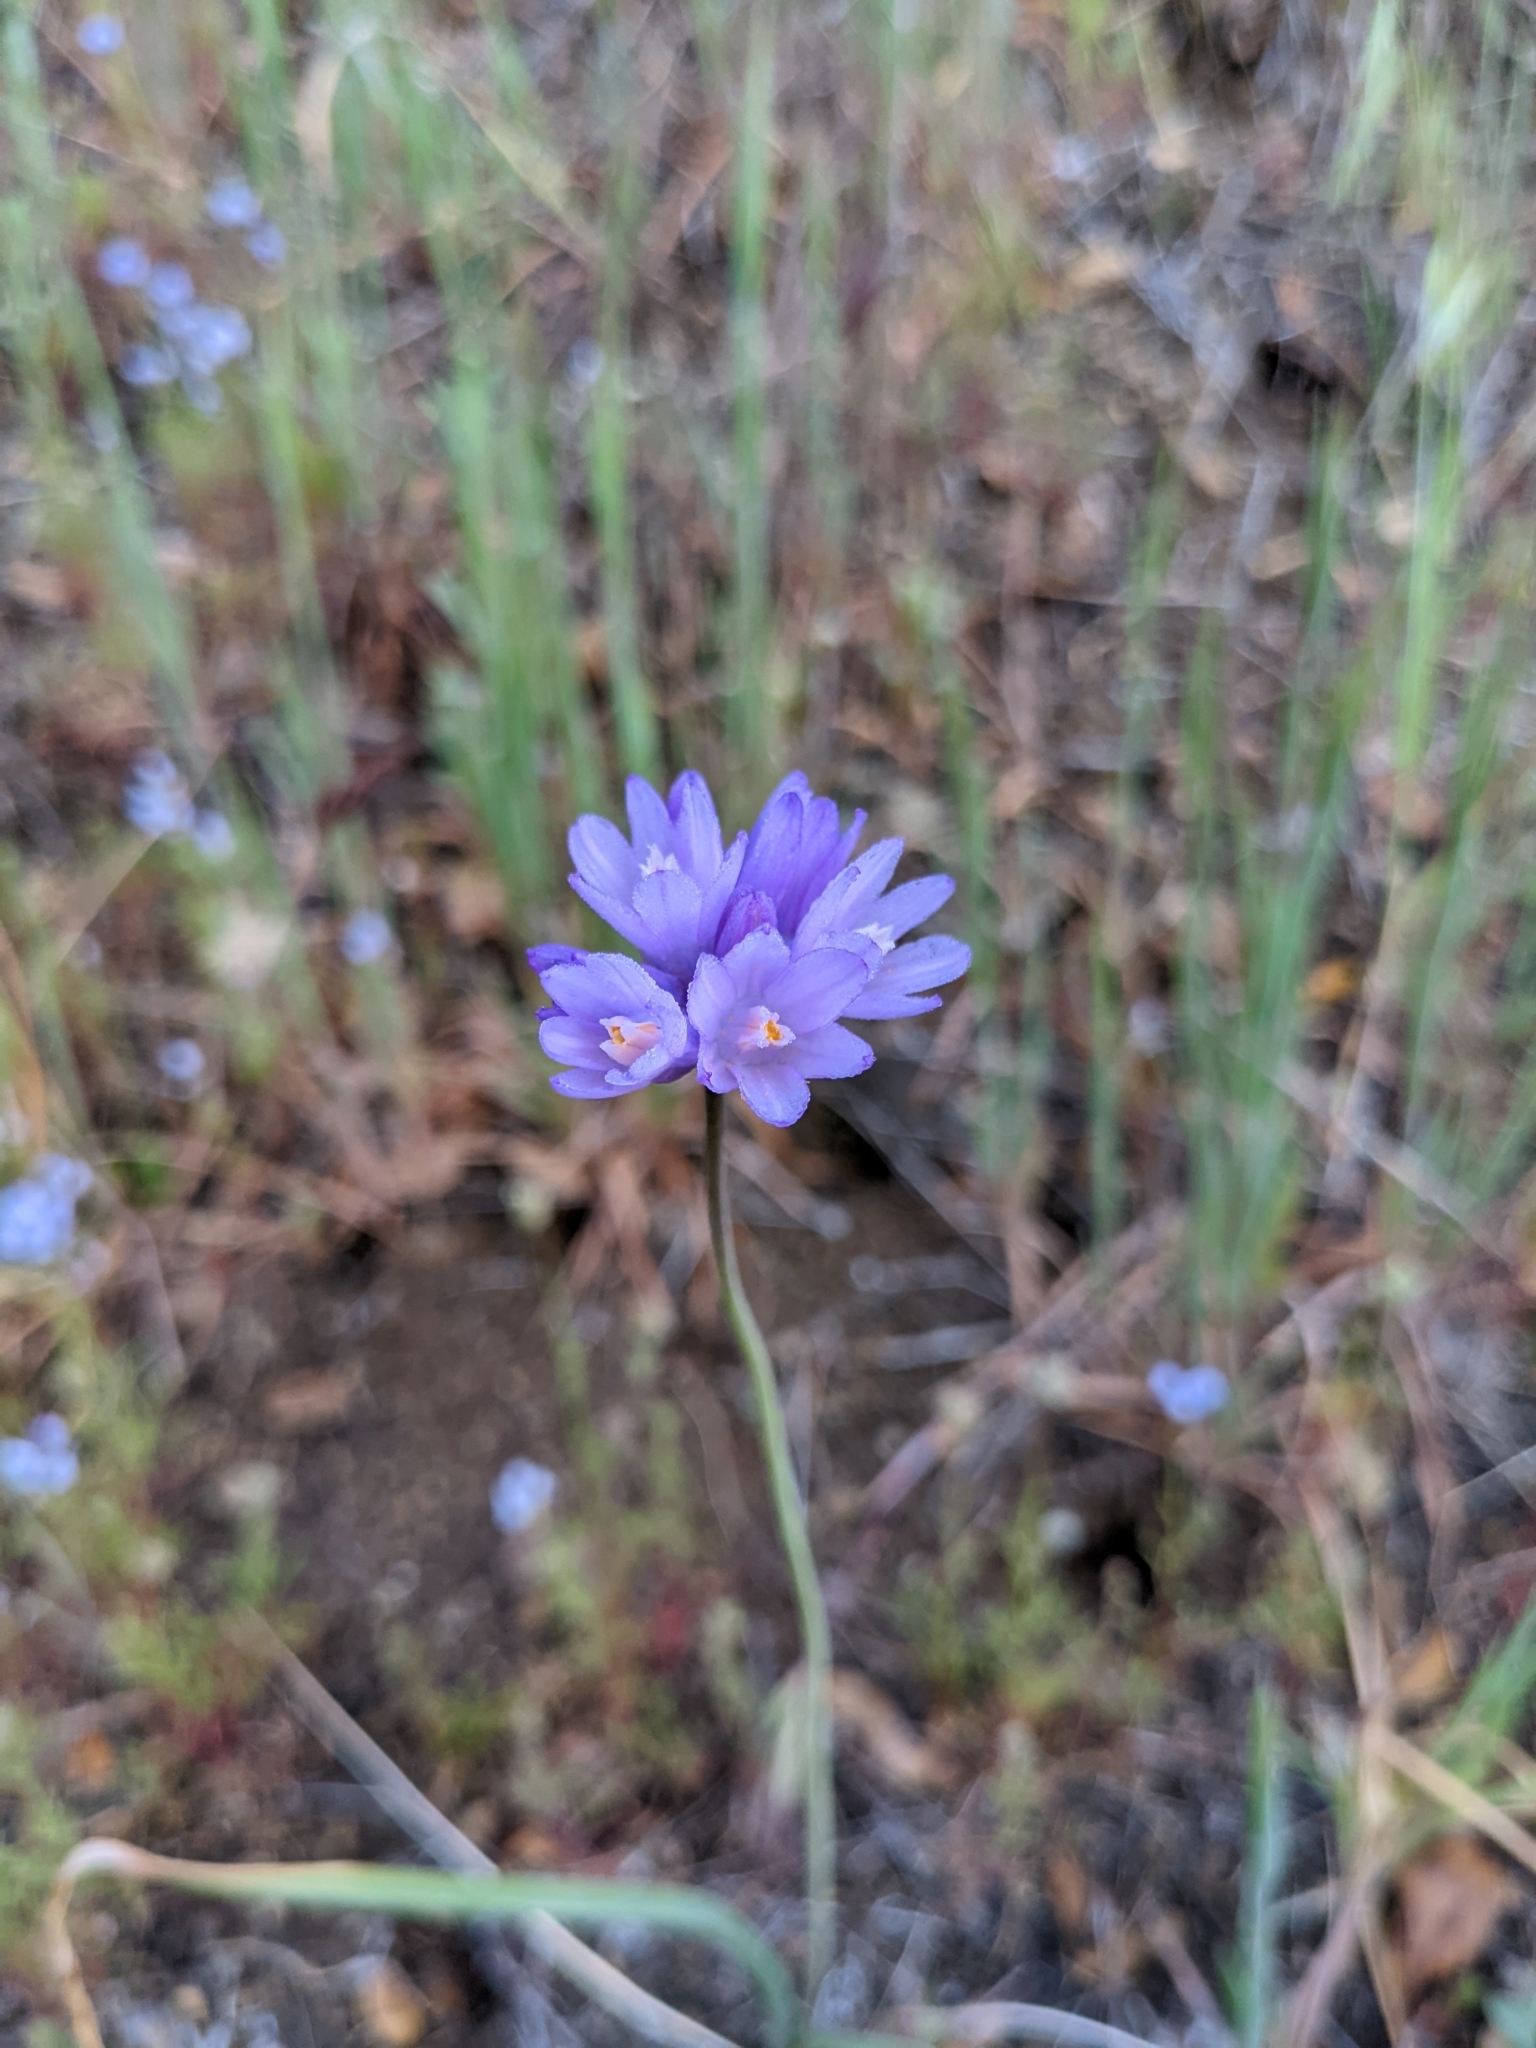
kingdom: Plantae
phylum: Tracheophyta
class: Liliopsida
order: Asparagales
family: Asparagaceae
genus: Dipterostemon
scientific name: Dipterostemon capitatus
